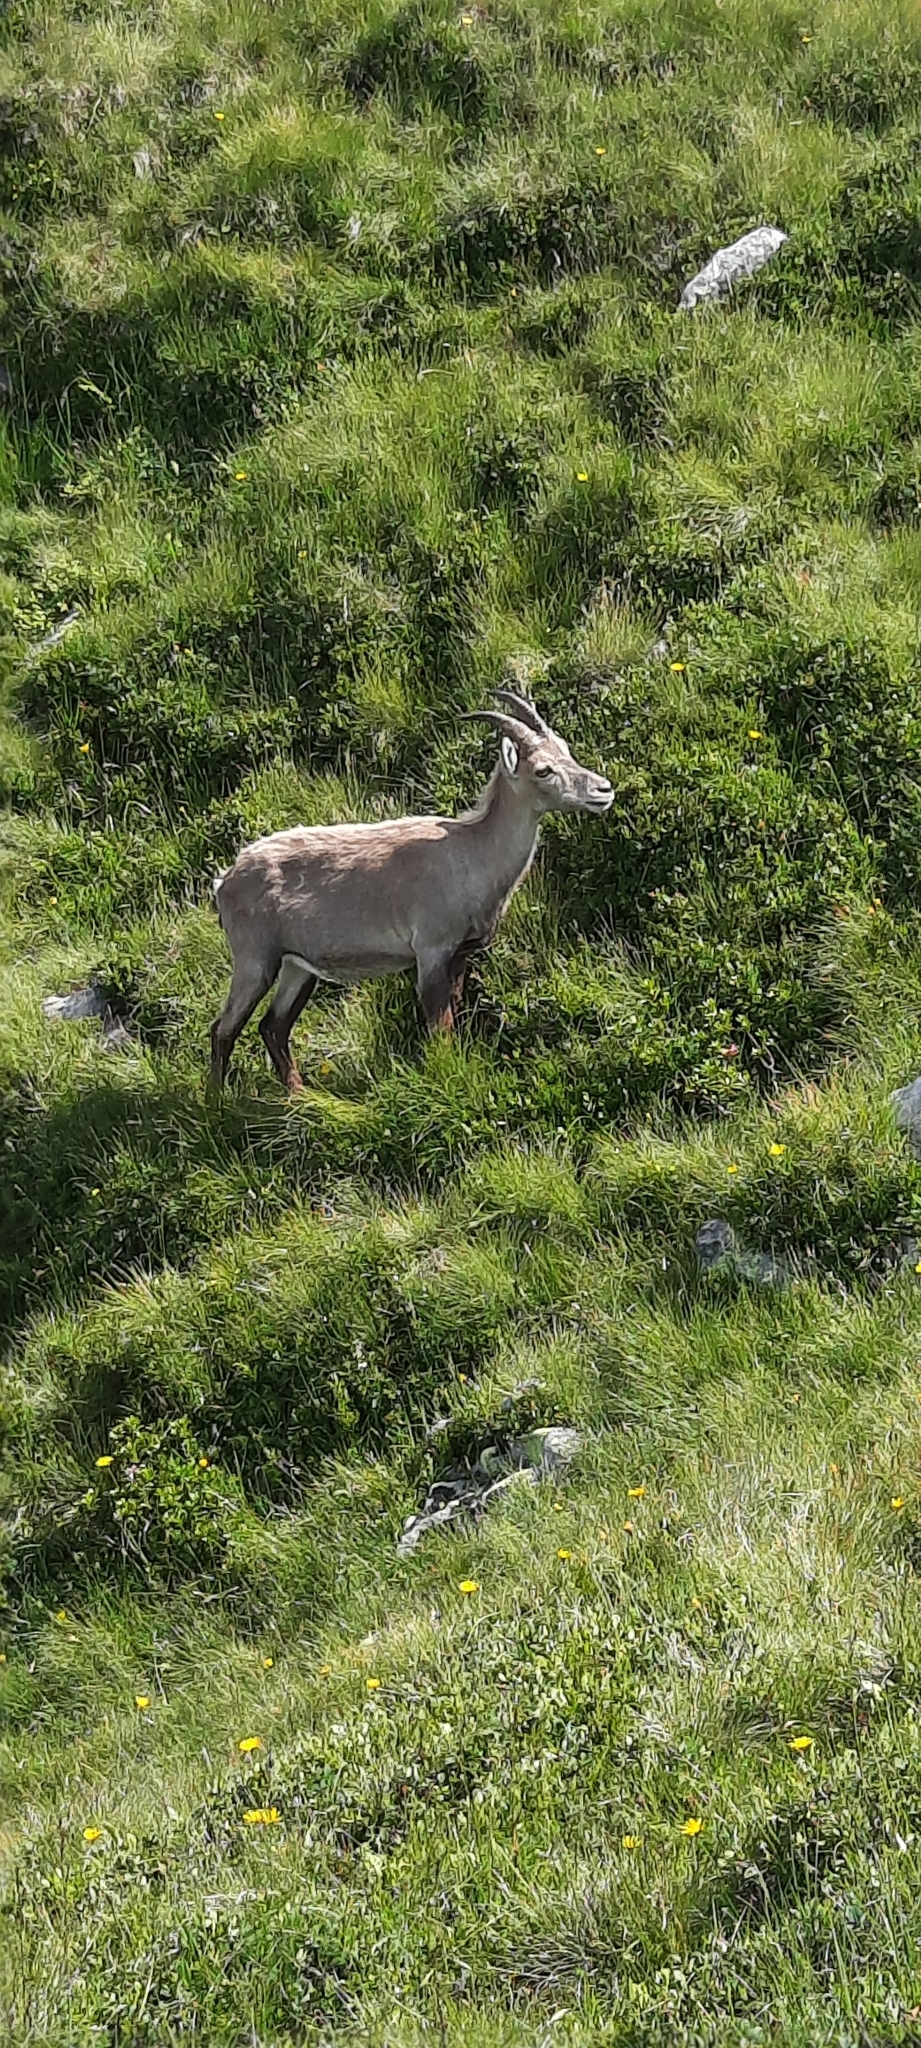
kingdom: Animalia
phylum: Chordata
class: Mammalia
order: Artiodactyla
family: Bovidae
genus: Capra
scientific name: Capra ibex
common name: Alpine ibex
